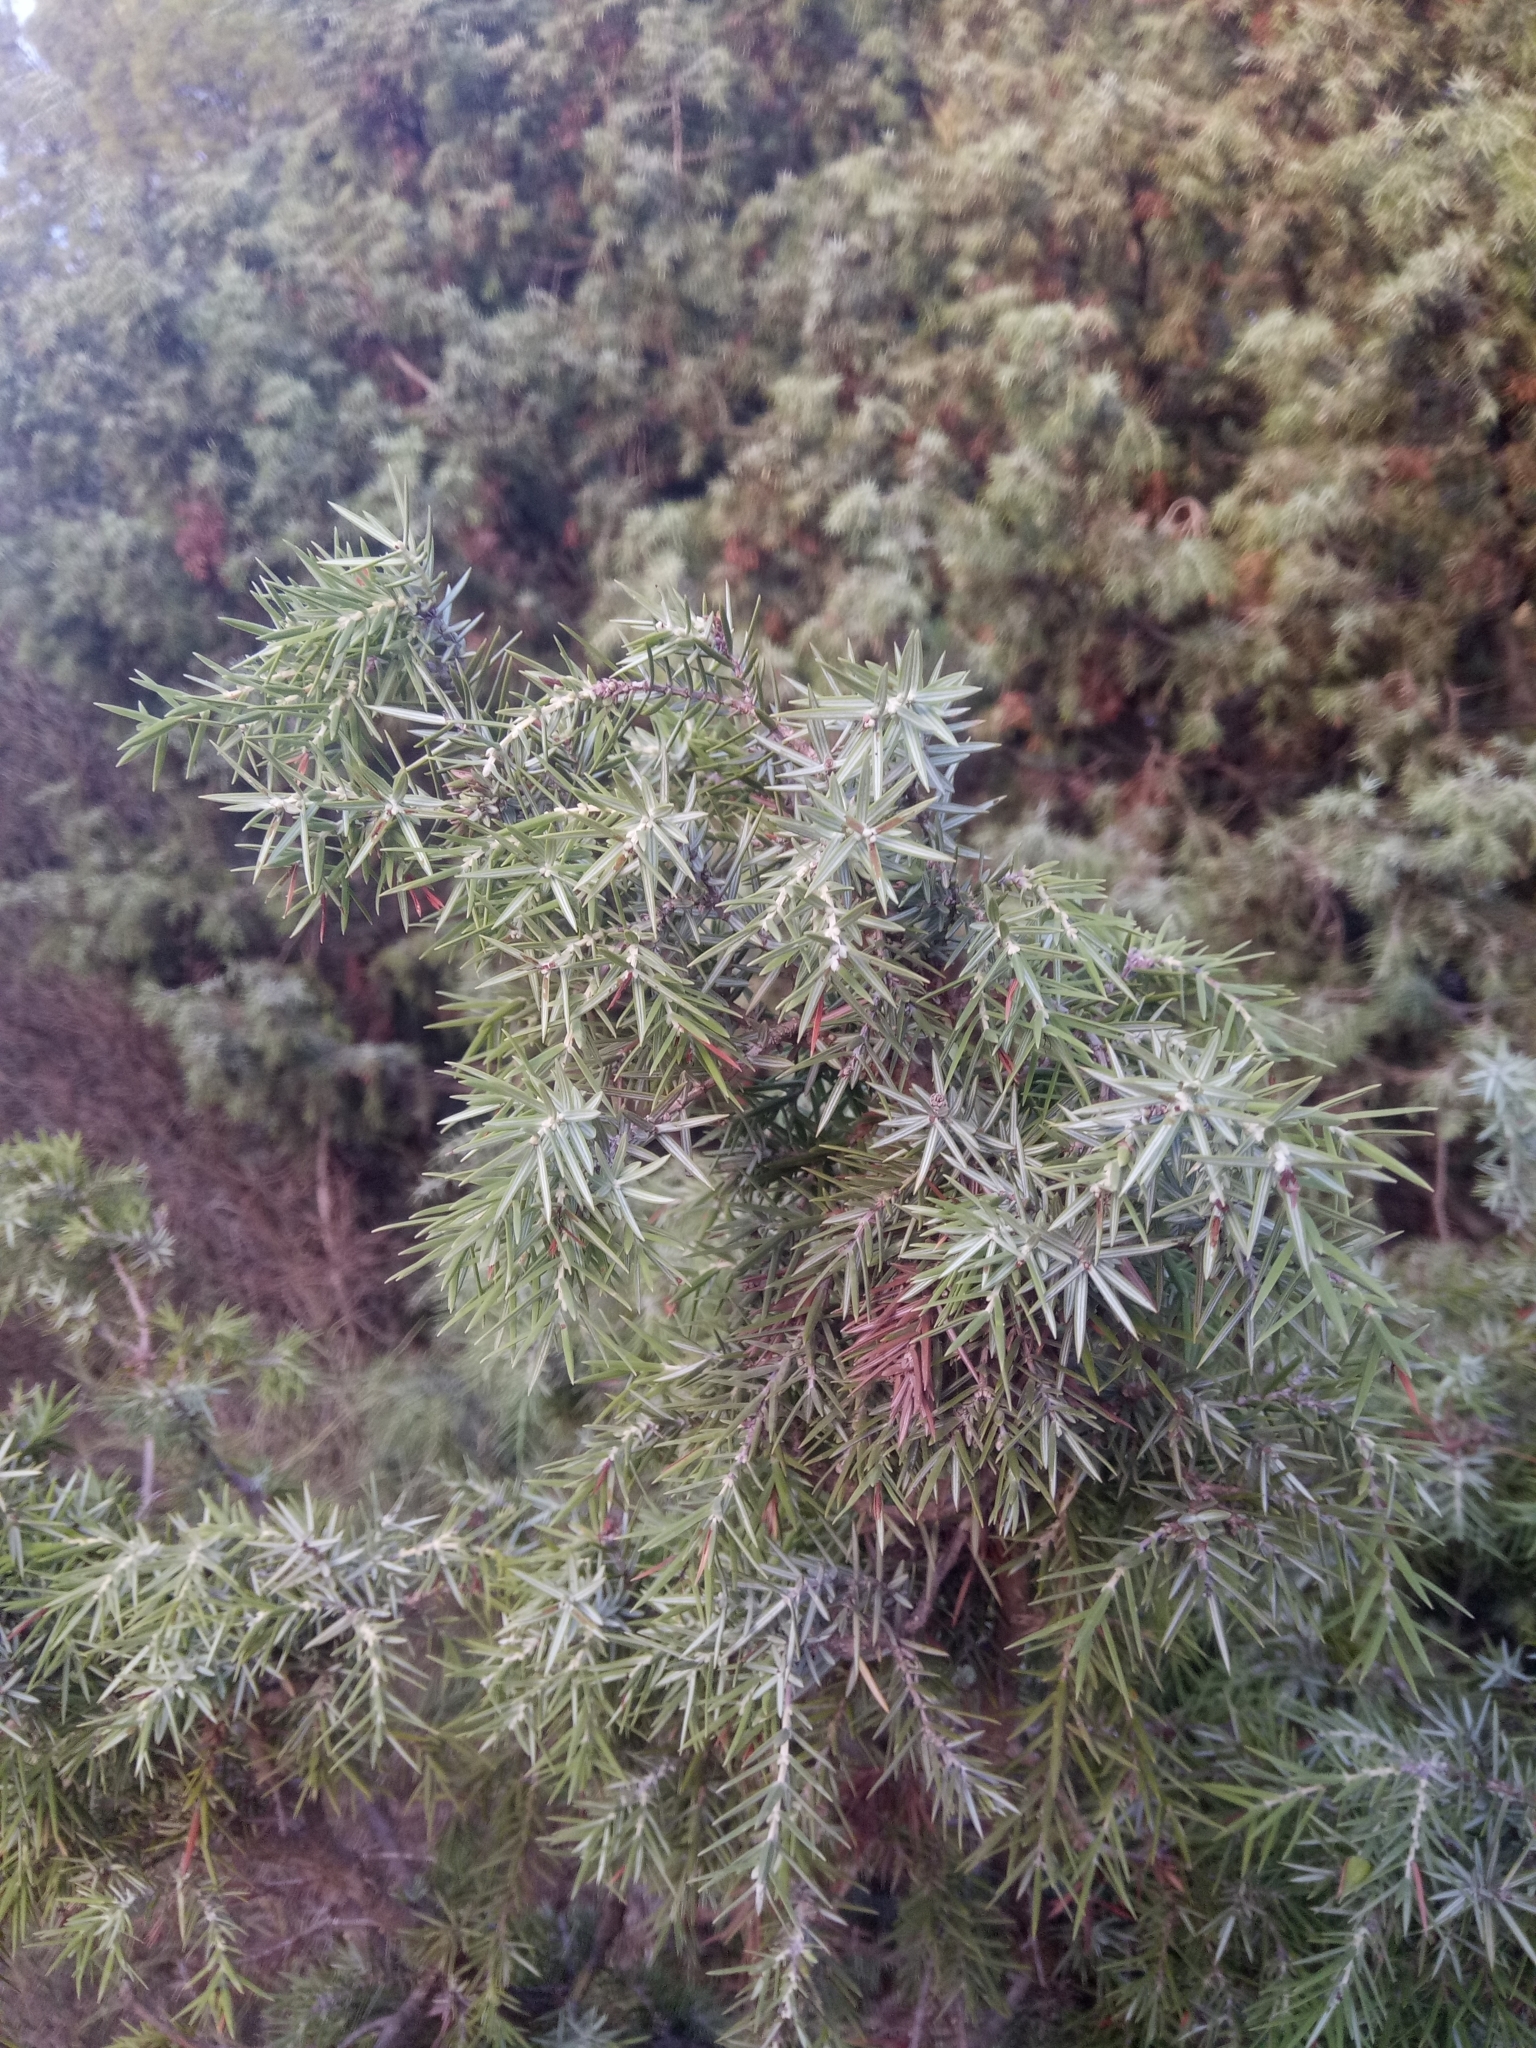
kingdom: Plantae
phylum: Tracheophyta
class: Pinopsida
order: Pinales
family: Cupressaceae
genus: Juniperus
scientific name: Juniperus oxycedrus
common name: Prickly juniper
